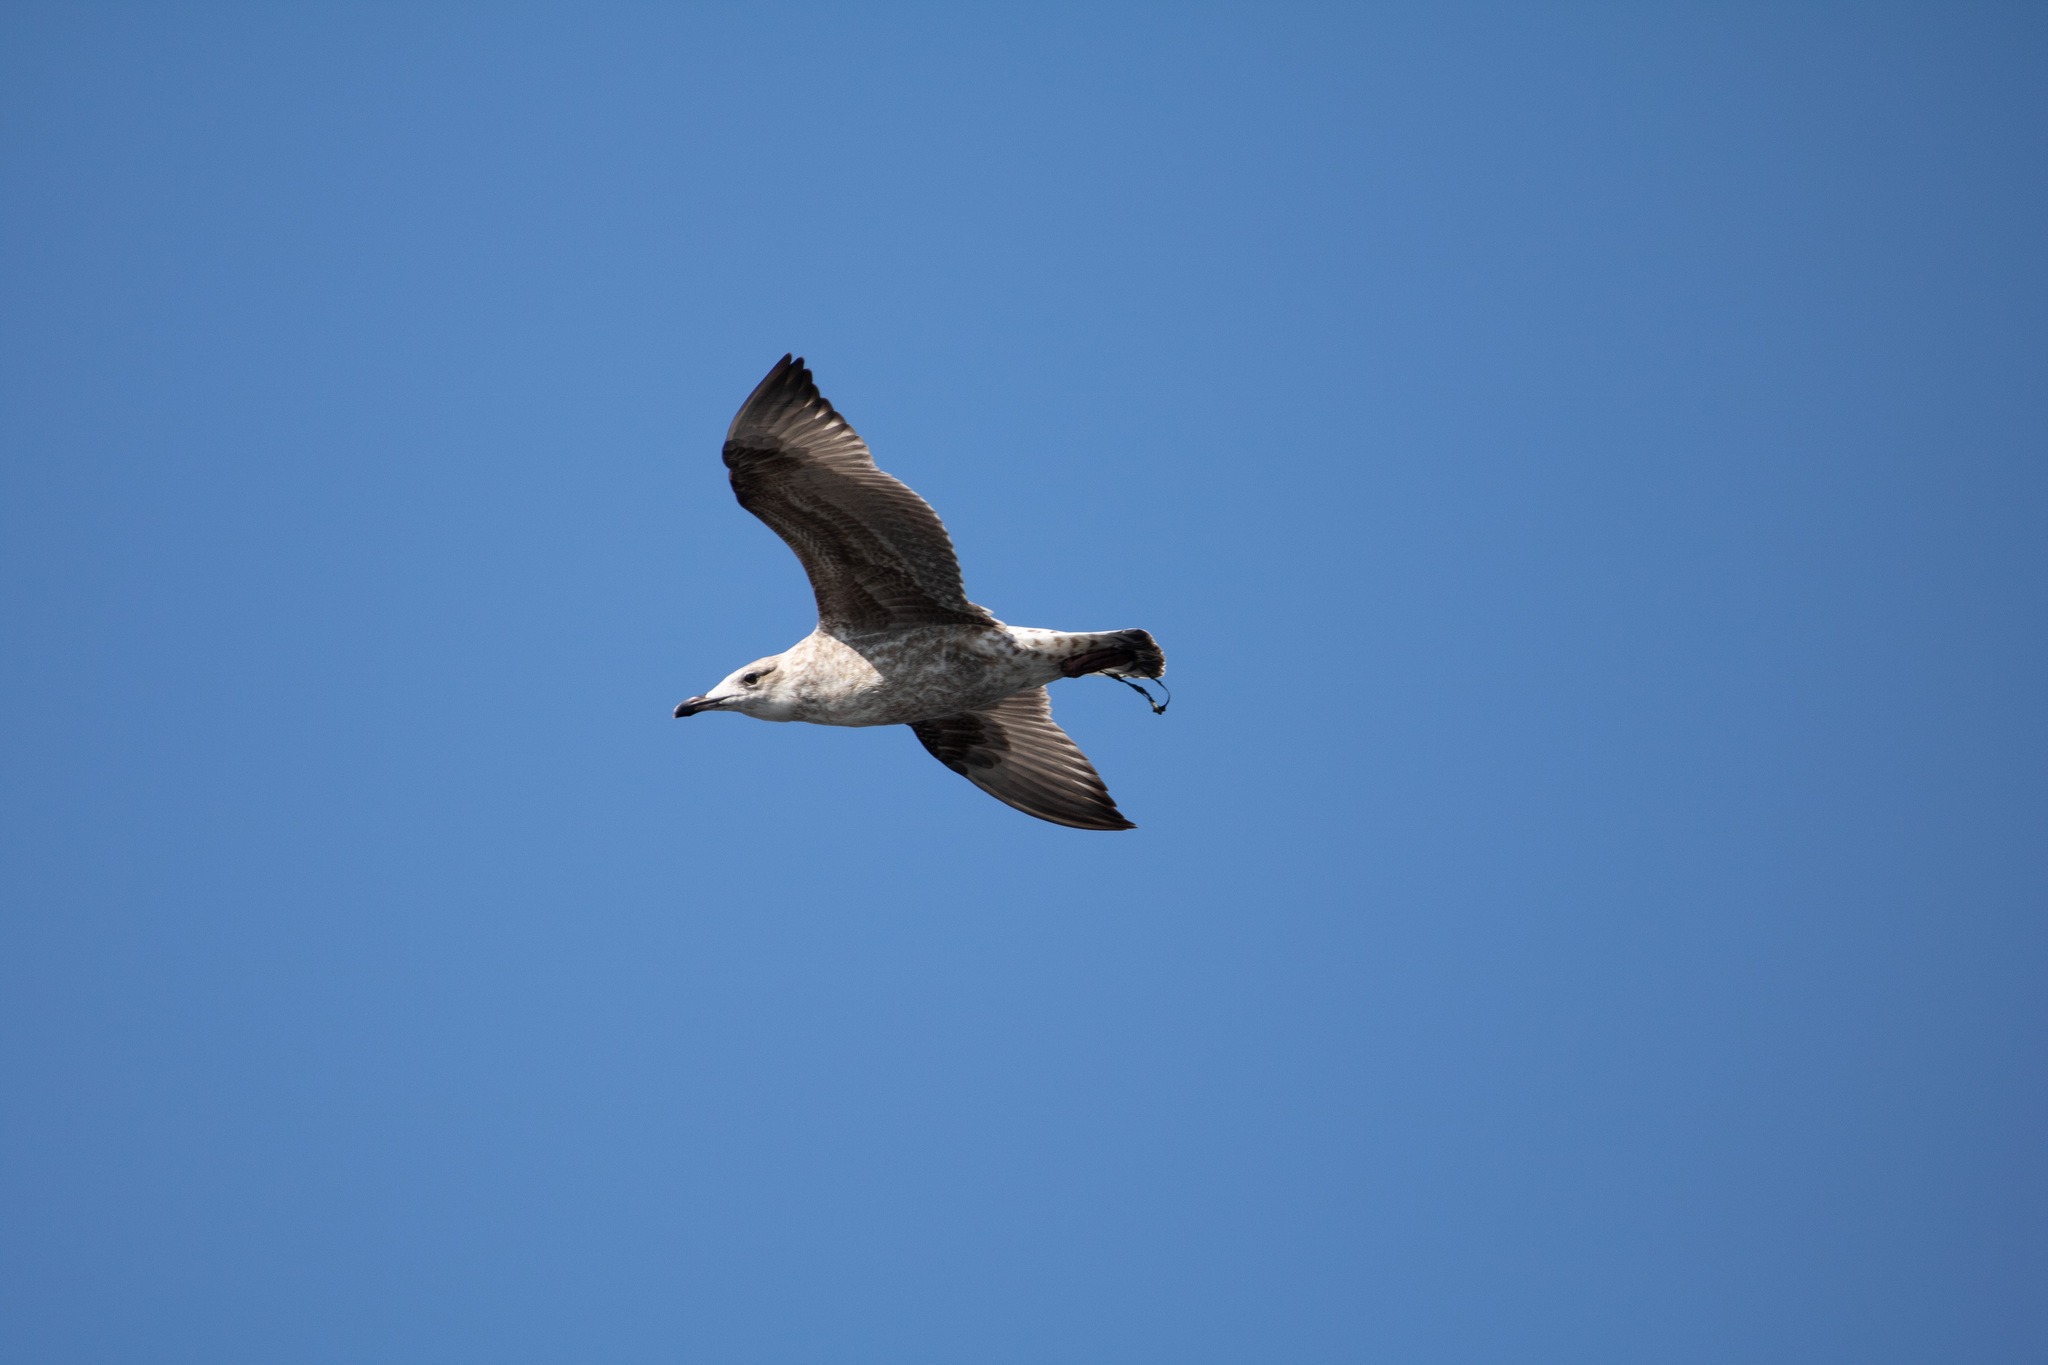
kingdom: Animalia
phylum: Chordata
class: Aves
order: Charadriiformes
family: Laridae
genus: Larus
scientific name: Larus argentatus
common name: Herring gull
